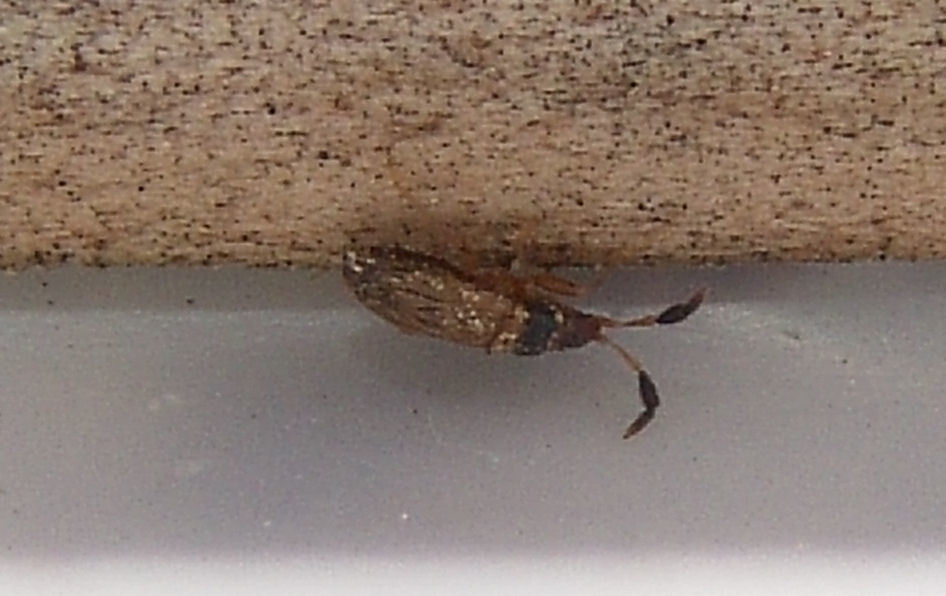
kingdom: Animalia
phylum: Arthropoda
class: Insecta
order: Hemiptera
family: Rhyparochromidae
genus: Ptochiomera
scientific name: Ptochiomera nodosa
